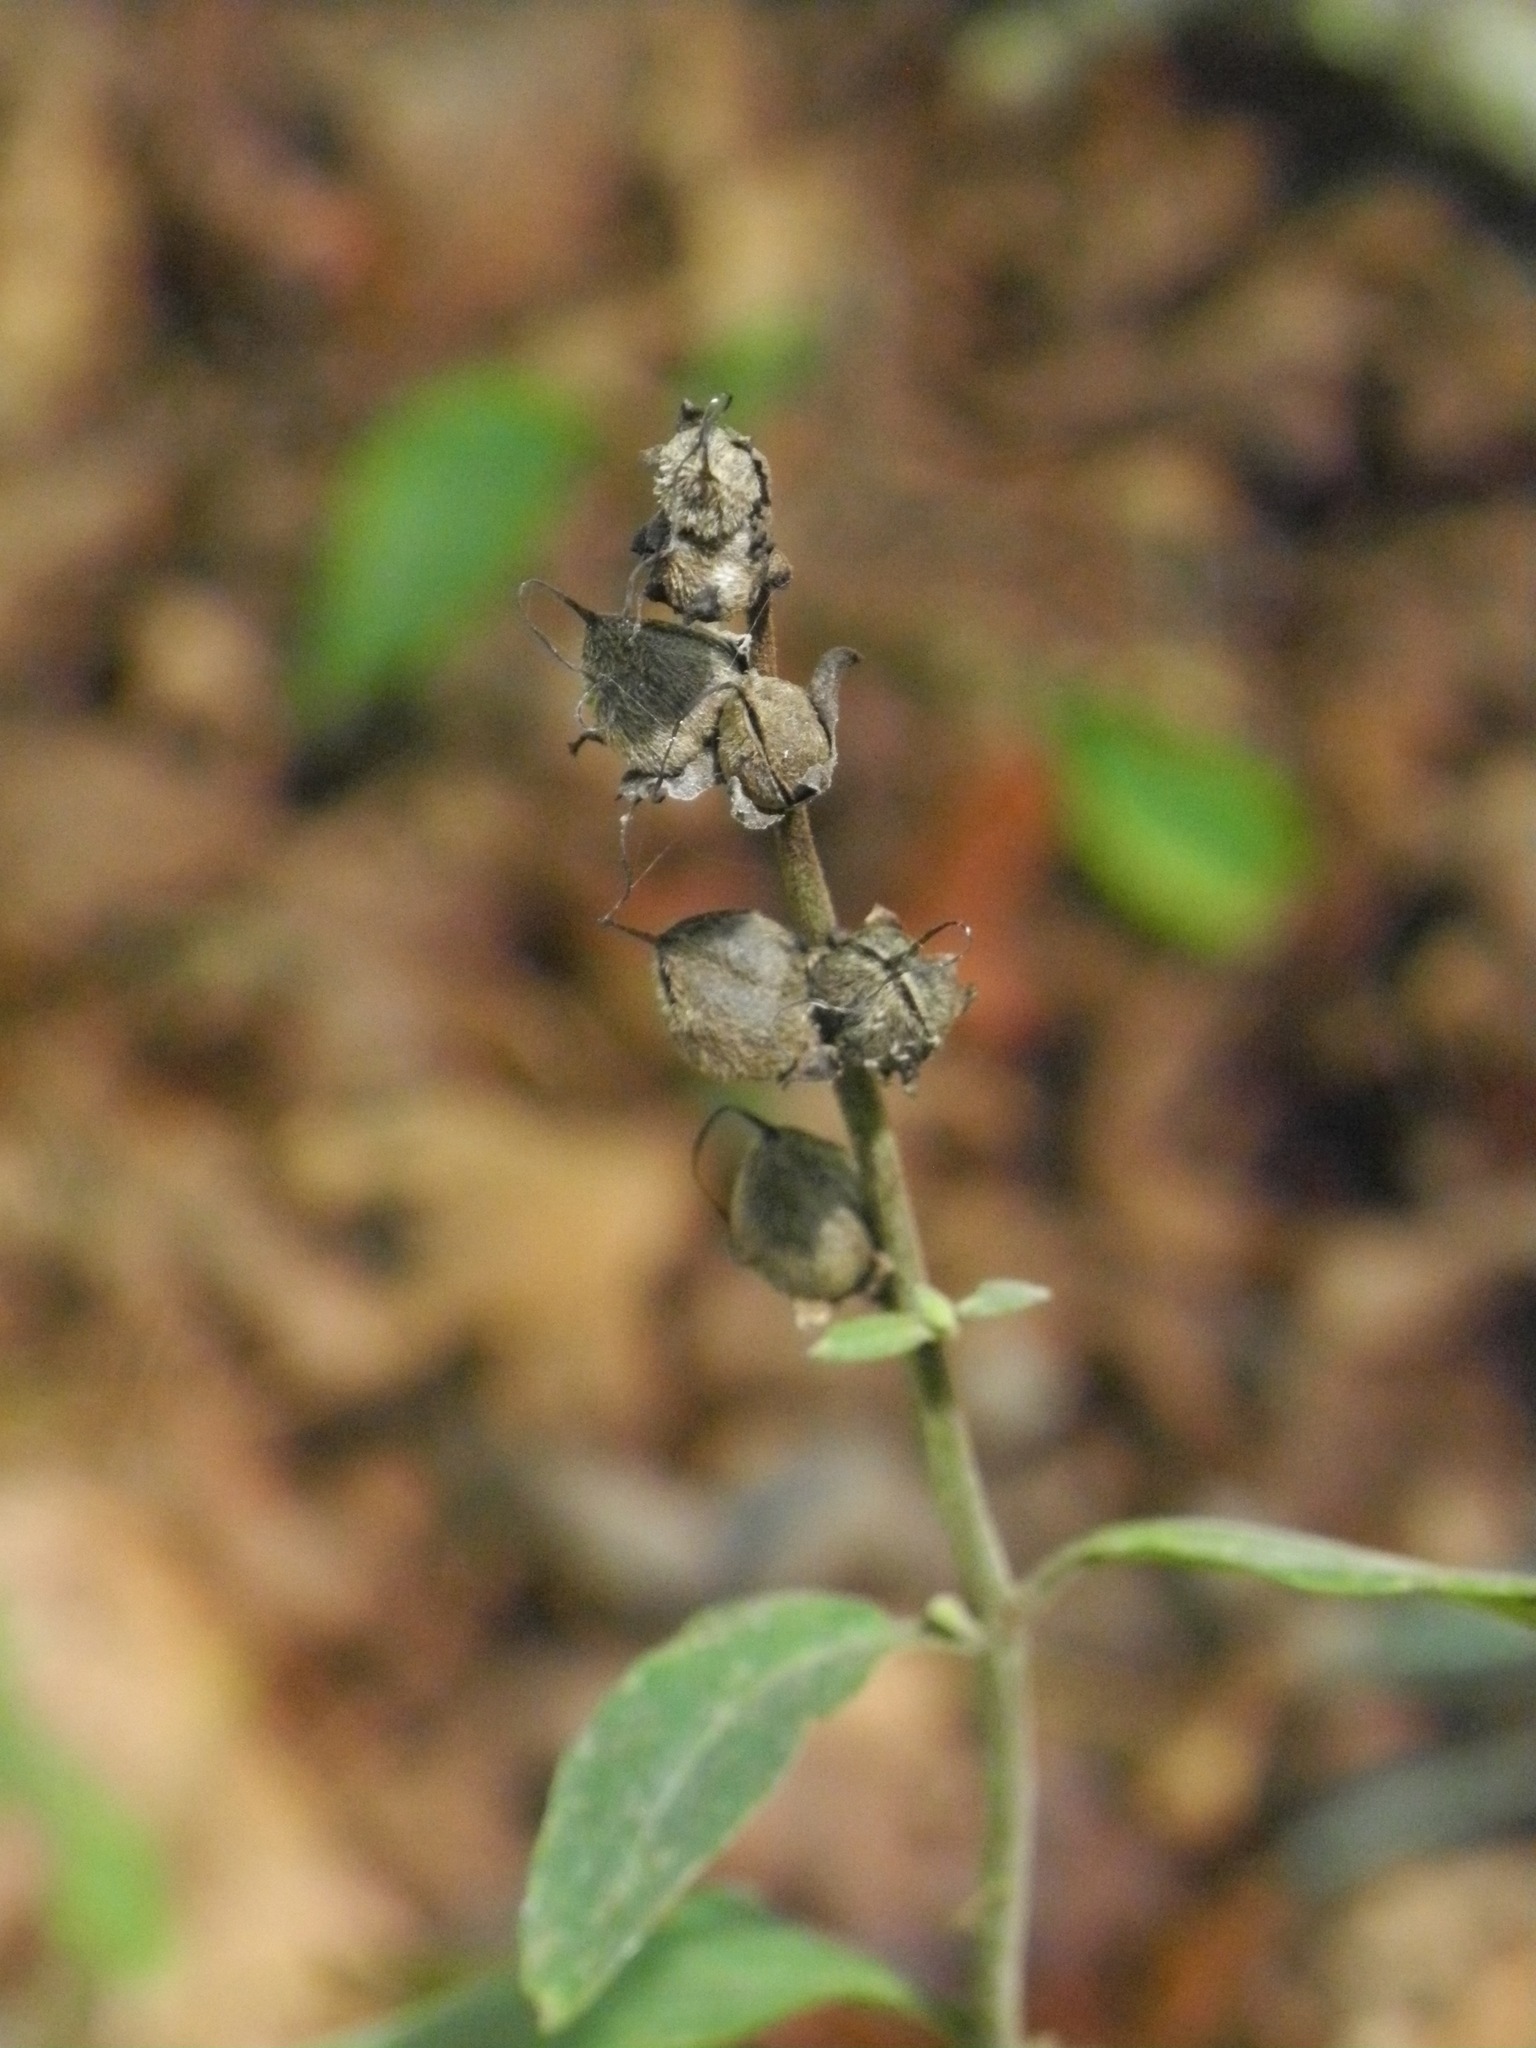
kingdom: Plantae
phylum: Tracheophyta
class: Magnoliopsida
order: Lamiales
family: Orobanchaceae
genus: Aureolaria
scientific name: Aureolaria virginica
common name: Downy false foxglove
